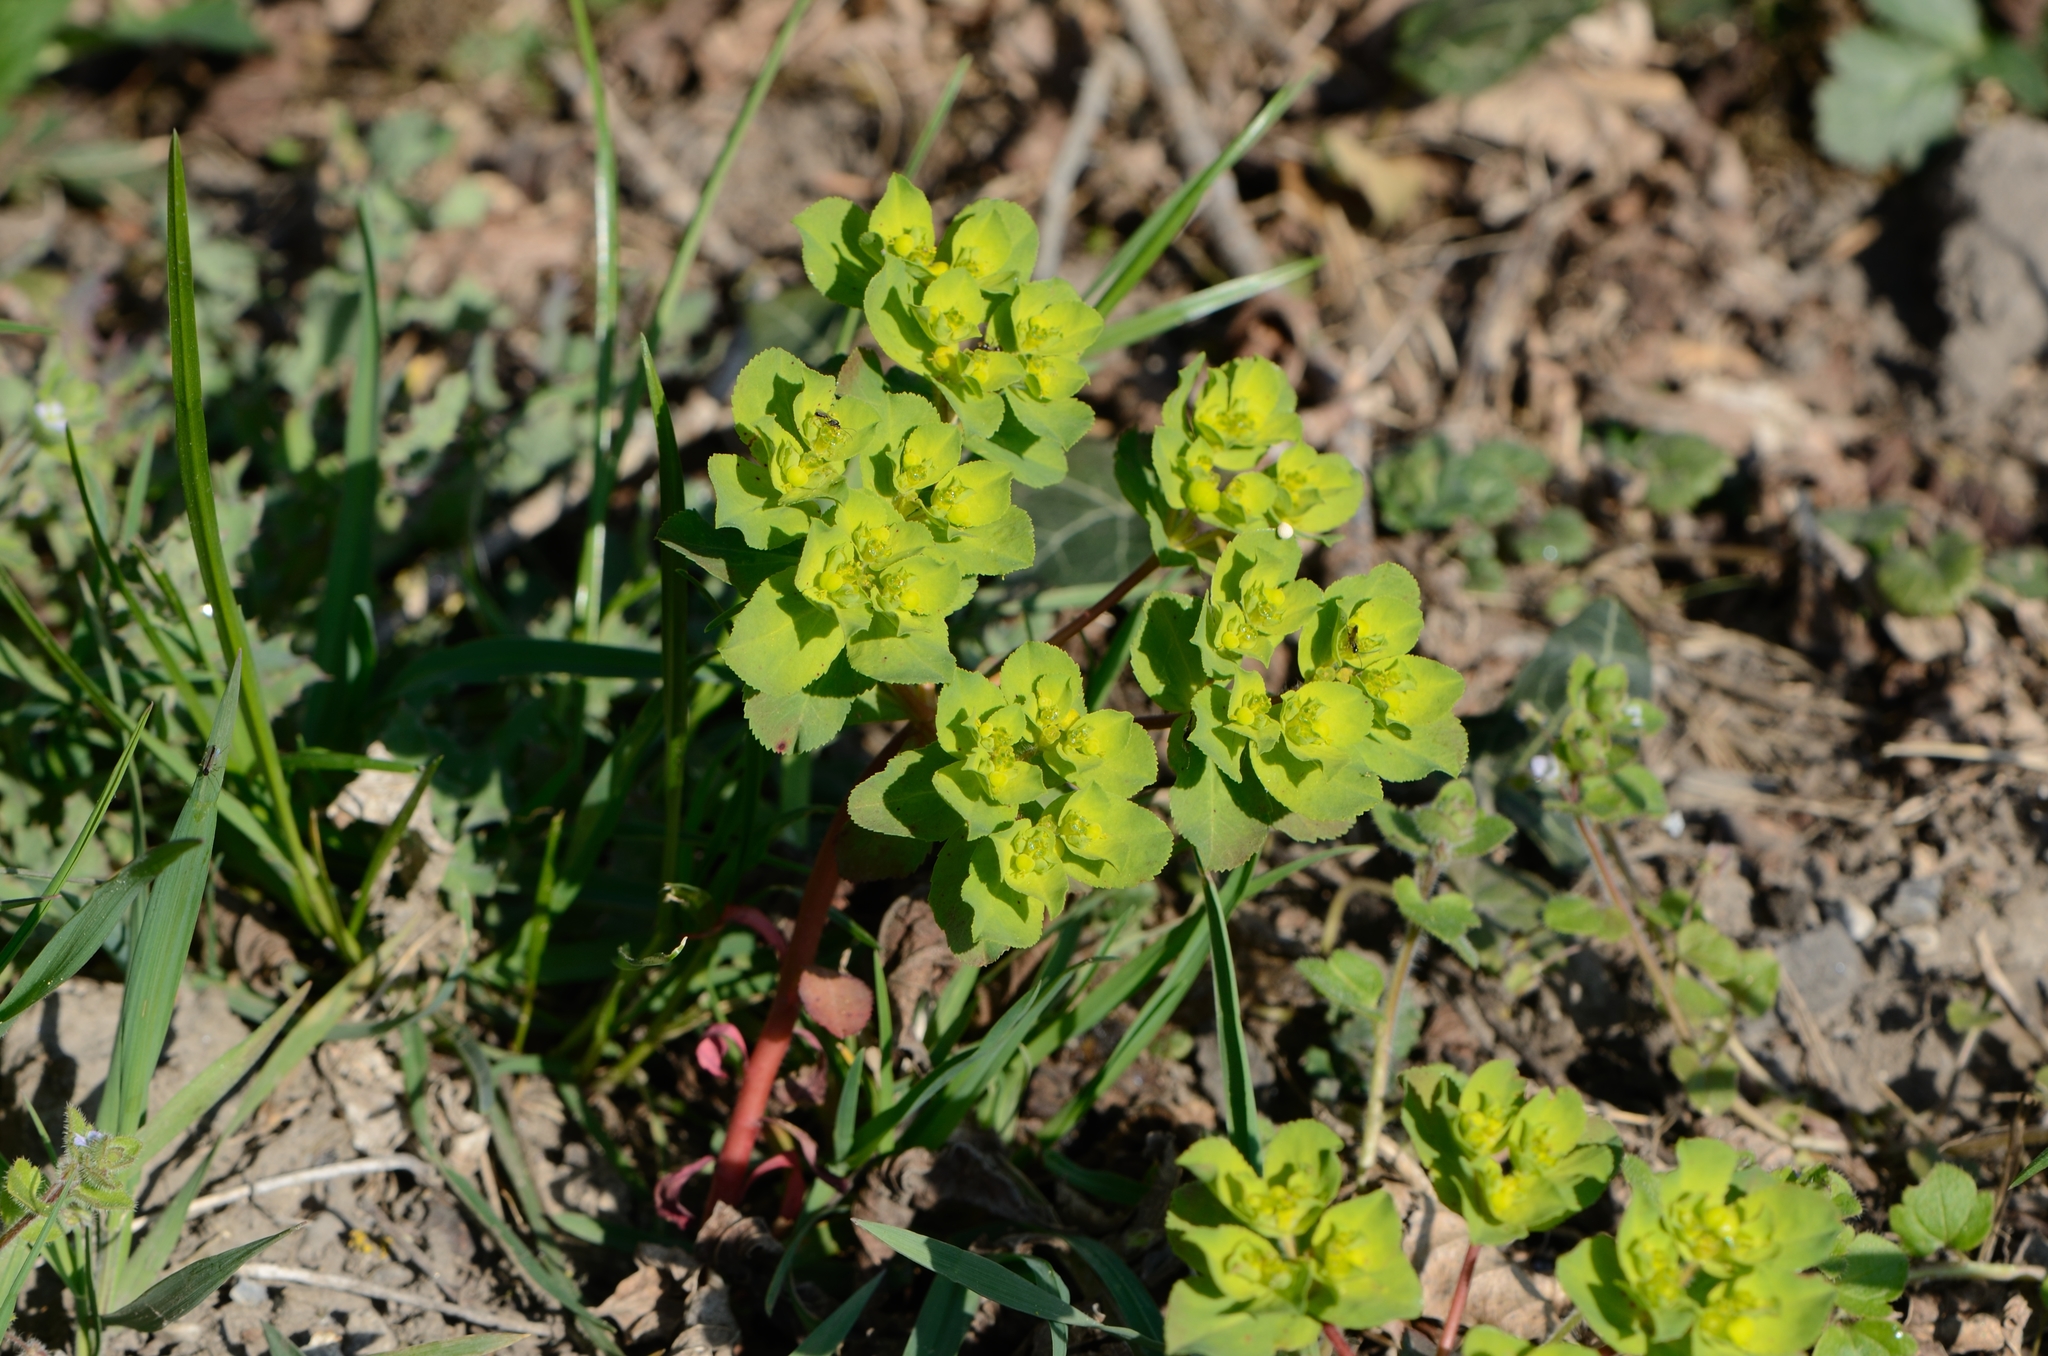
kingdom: Plantae
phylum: Tracheophyta
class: Magnoliopsida
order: Malpighiales
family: Euphorbiaceae
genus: Euphorbia
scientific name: Euphorbia helioscopia
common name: Sun spurge
